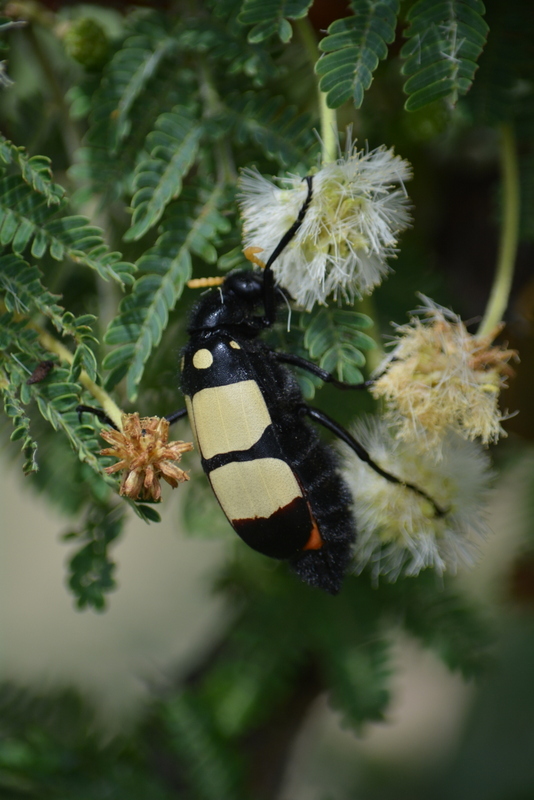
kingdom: Animalia
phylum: Arthropoda
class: Insecta
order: Coleoptera
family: Meloidae
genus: Hycleus
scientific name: Hycleus
